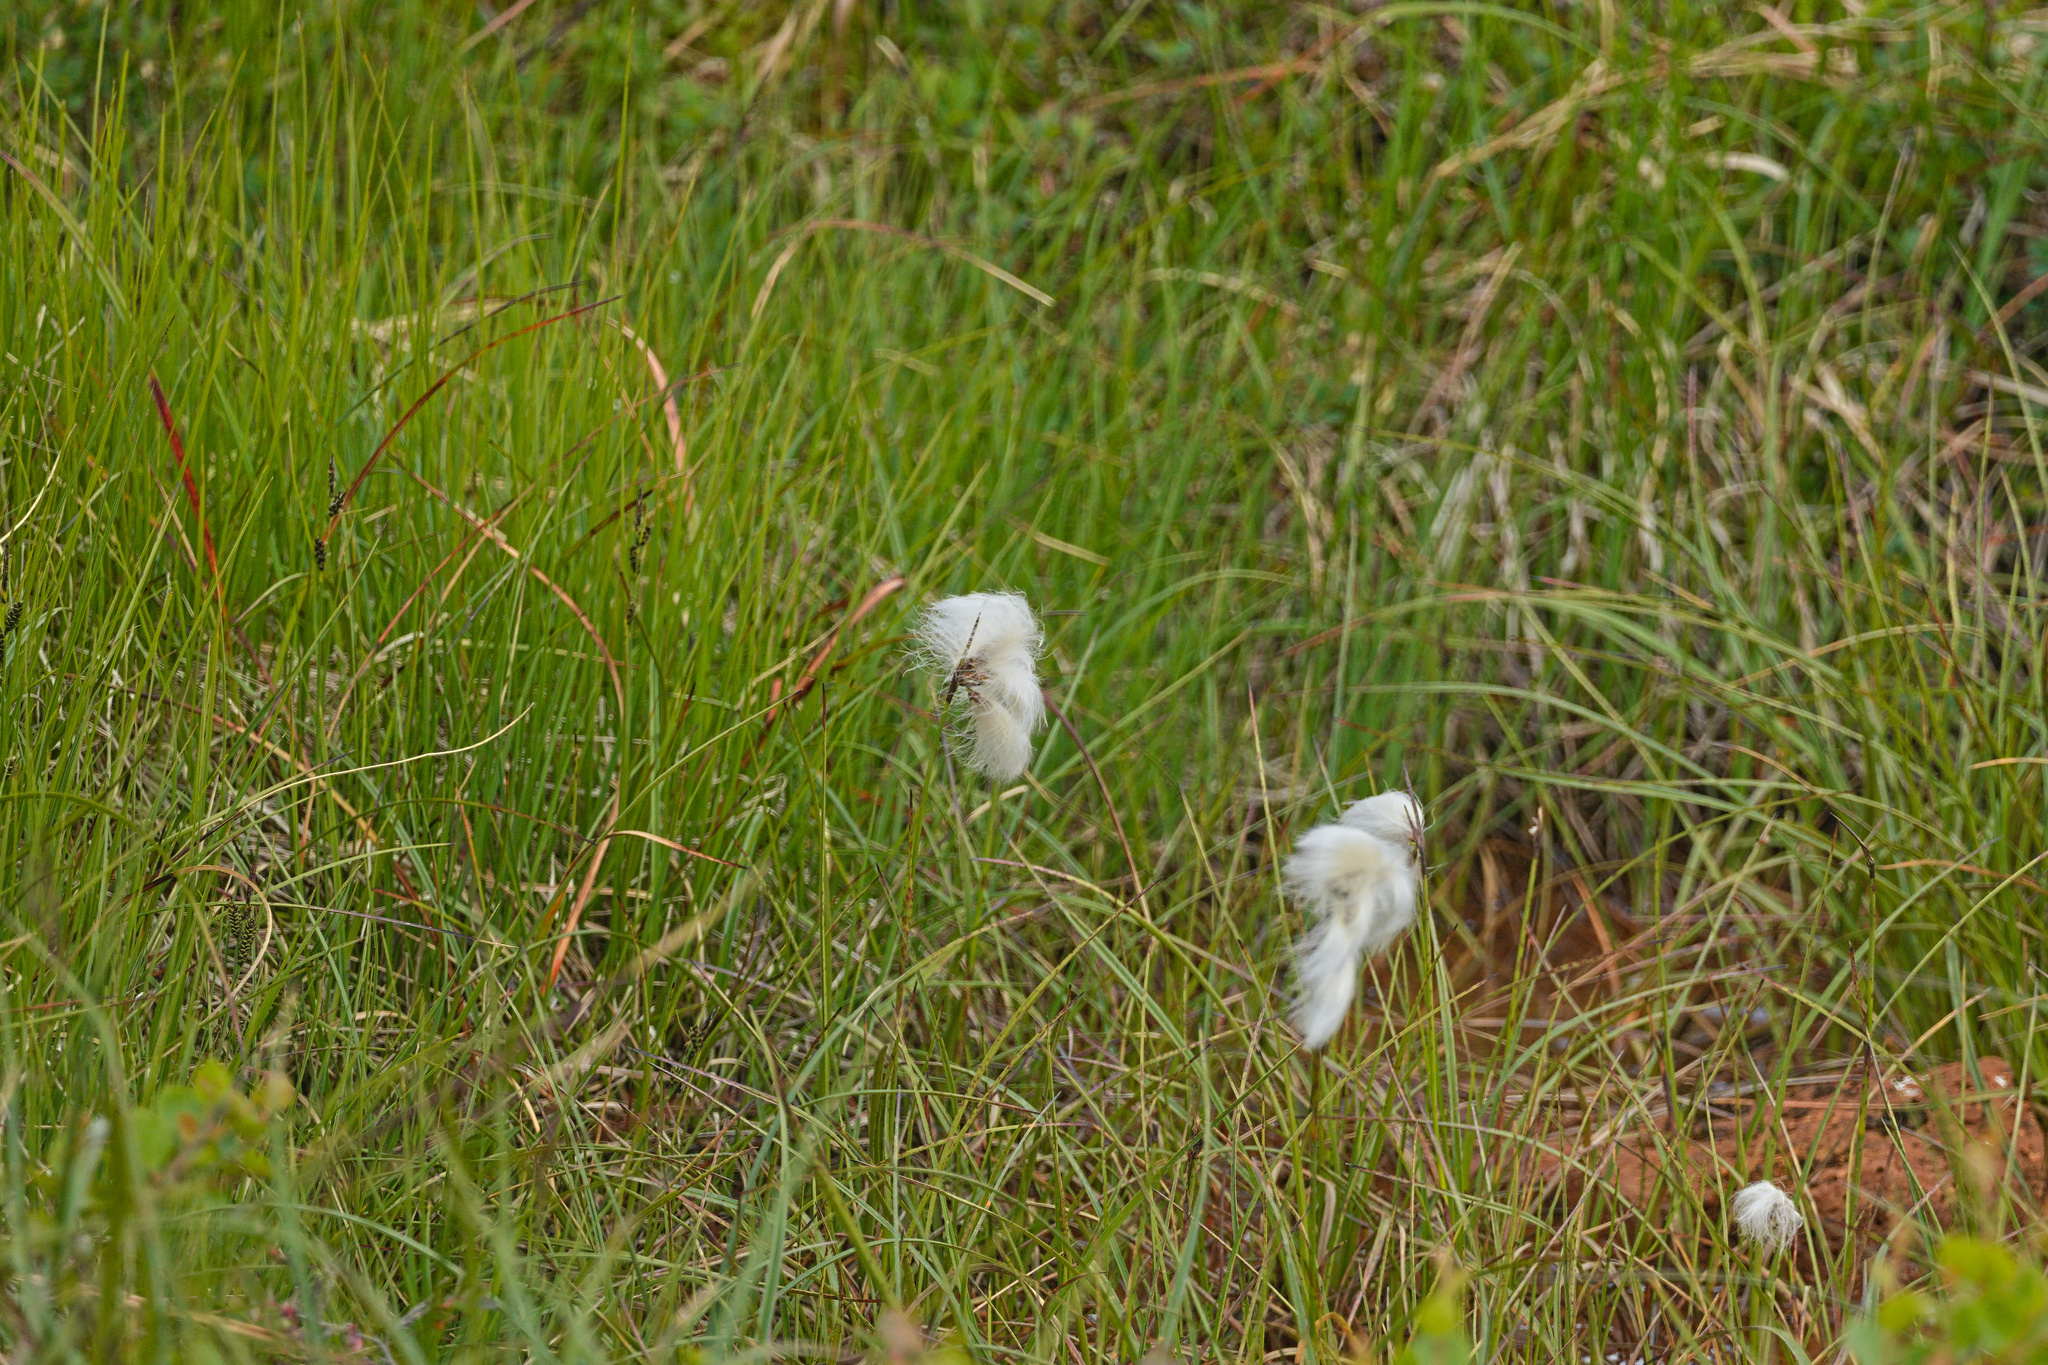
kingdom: Plantae
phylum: Tracheophyta
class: Liliopsida
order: Poales
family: Cyperaceae
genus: Eriophorum
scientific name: Eriophorum angustifolium
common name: Common cottongrass
